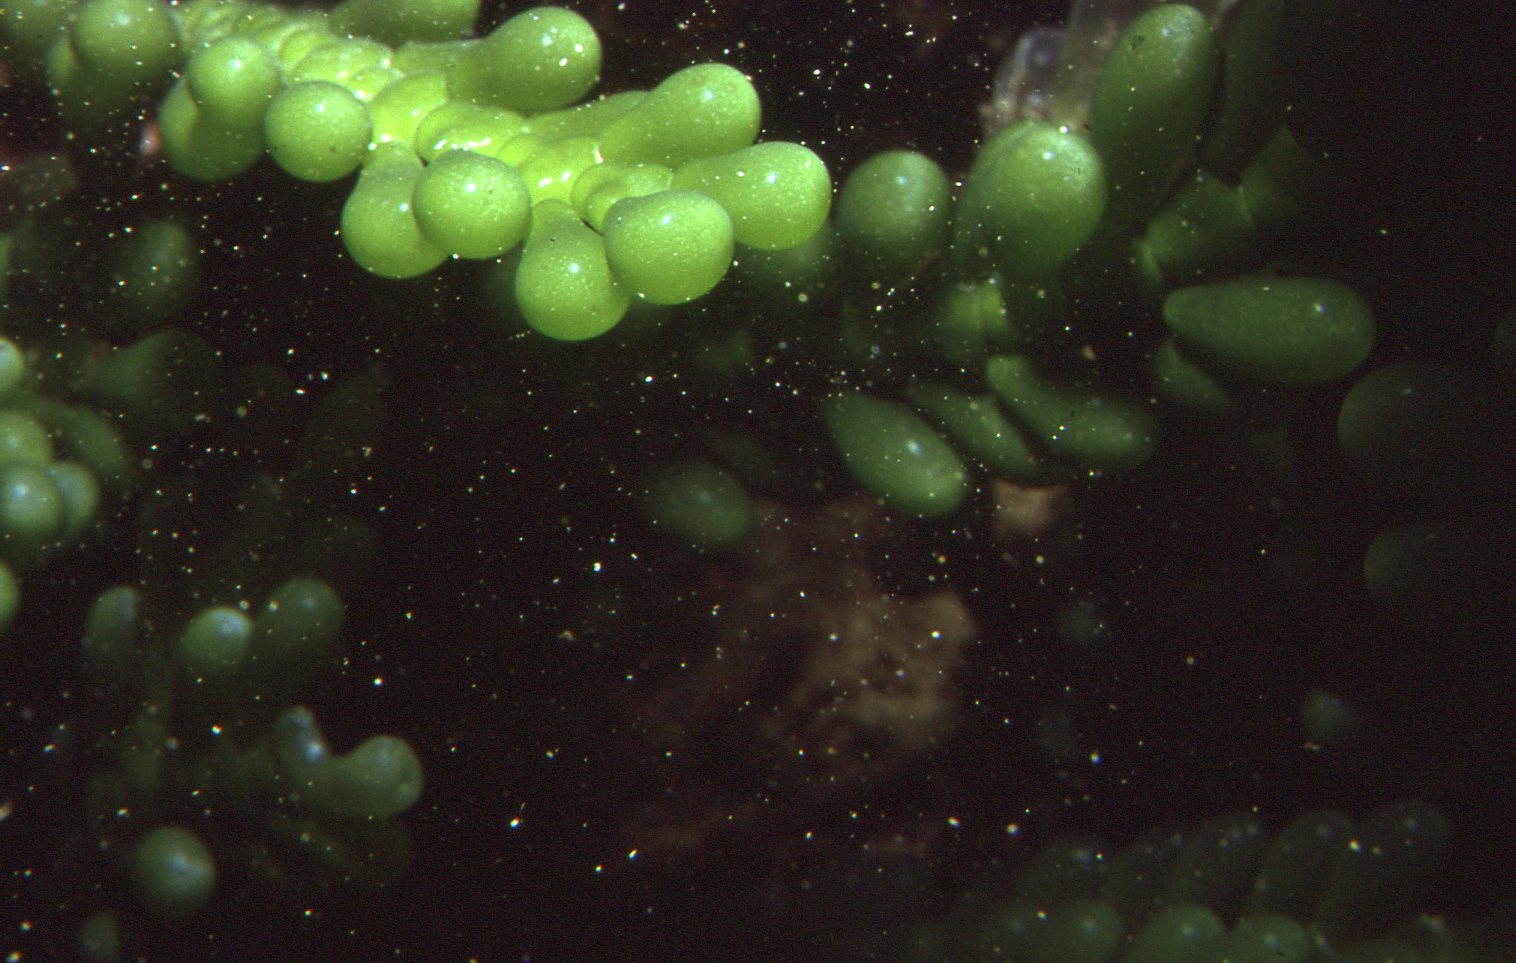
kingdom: Plantae
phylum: Chlorophyta
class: Ulvophyceae
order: Bryopsidales
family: Caulerpaceae
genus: Caulerpa
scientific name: Caulerpa cactoides
